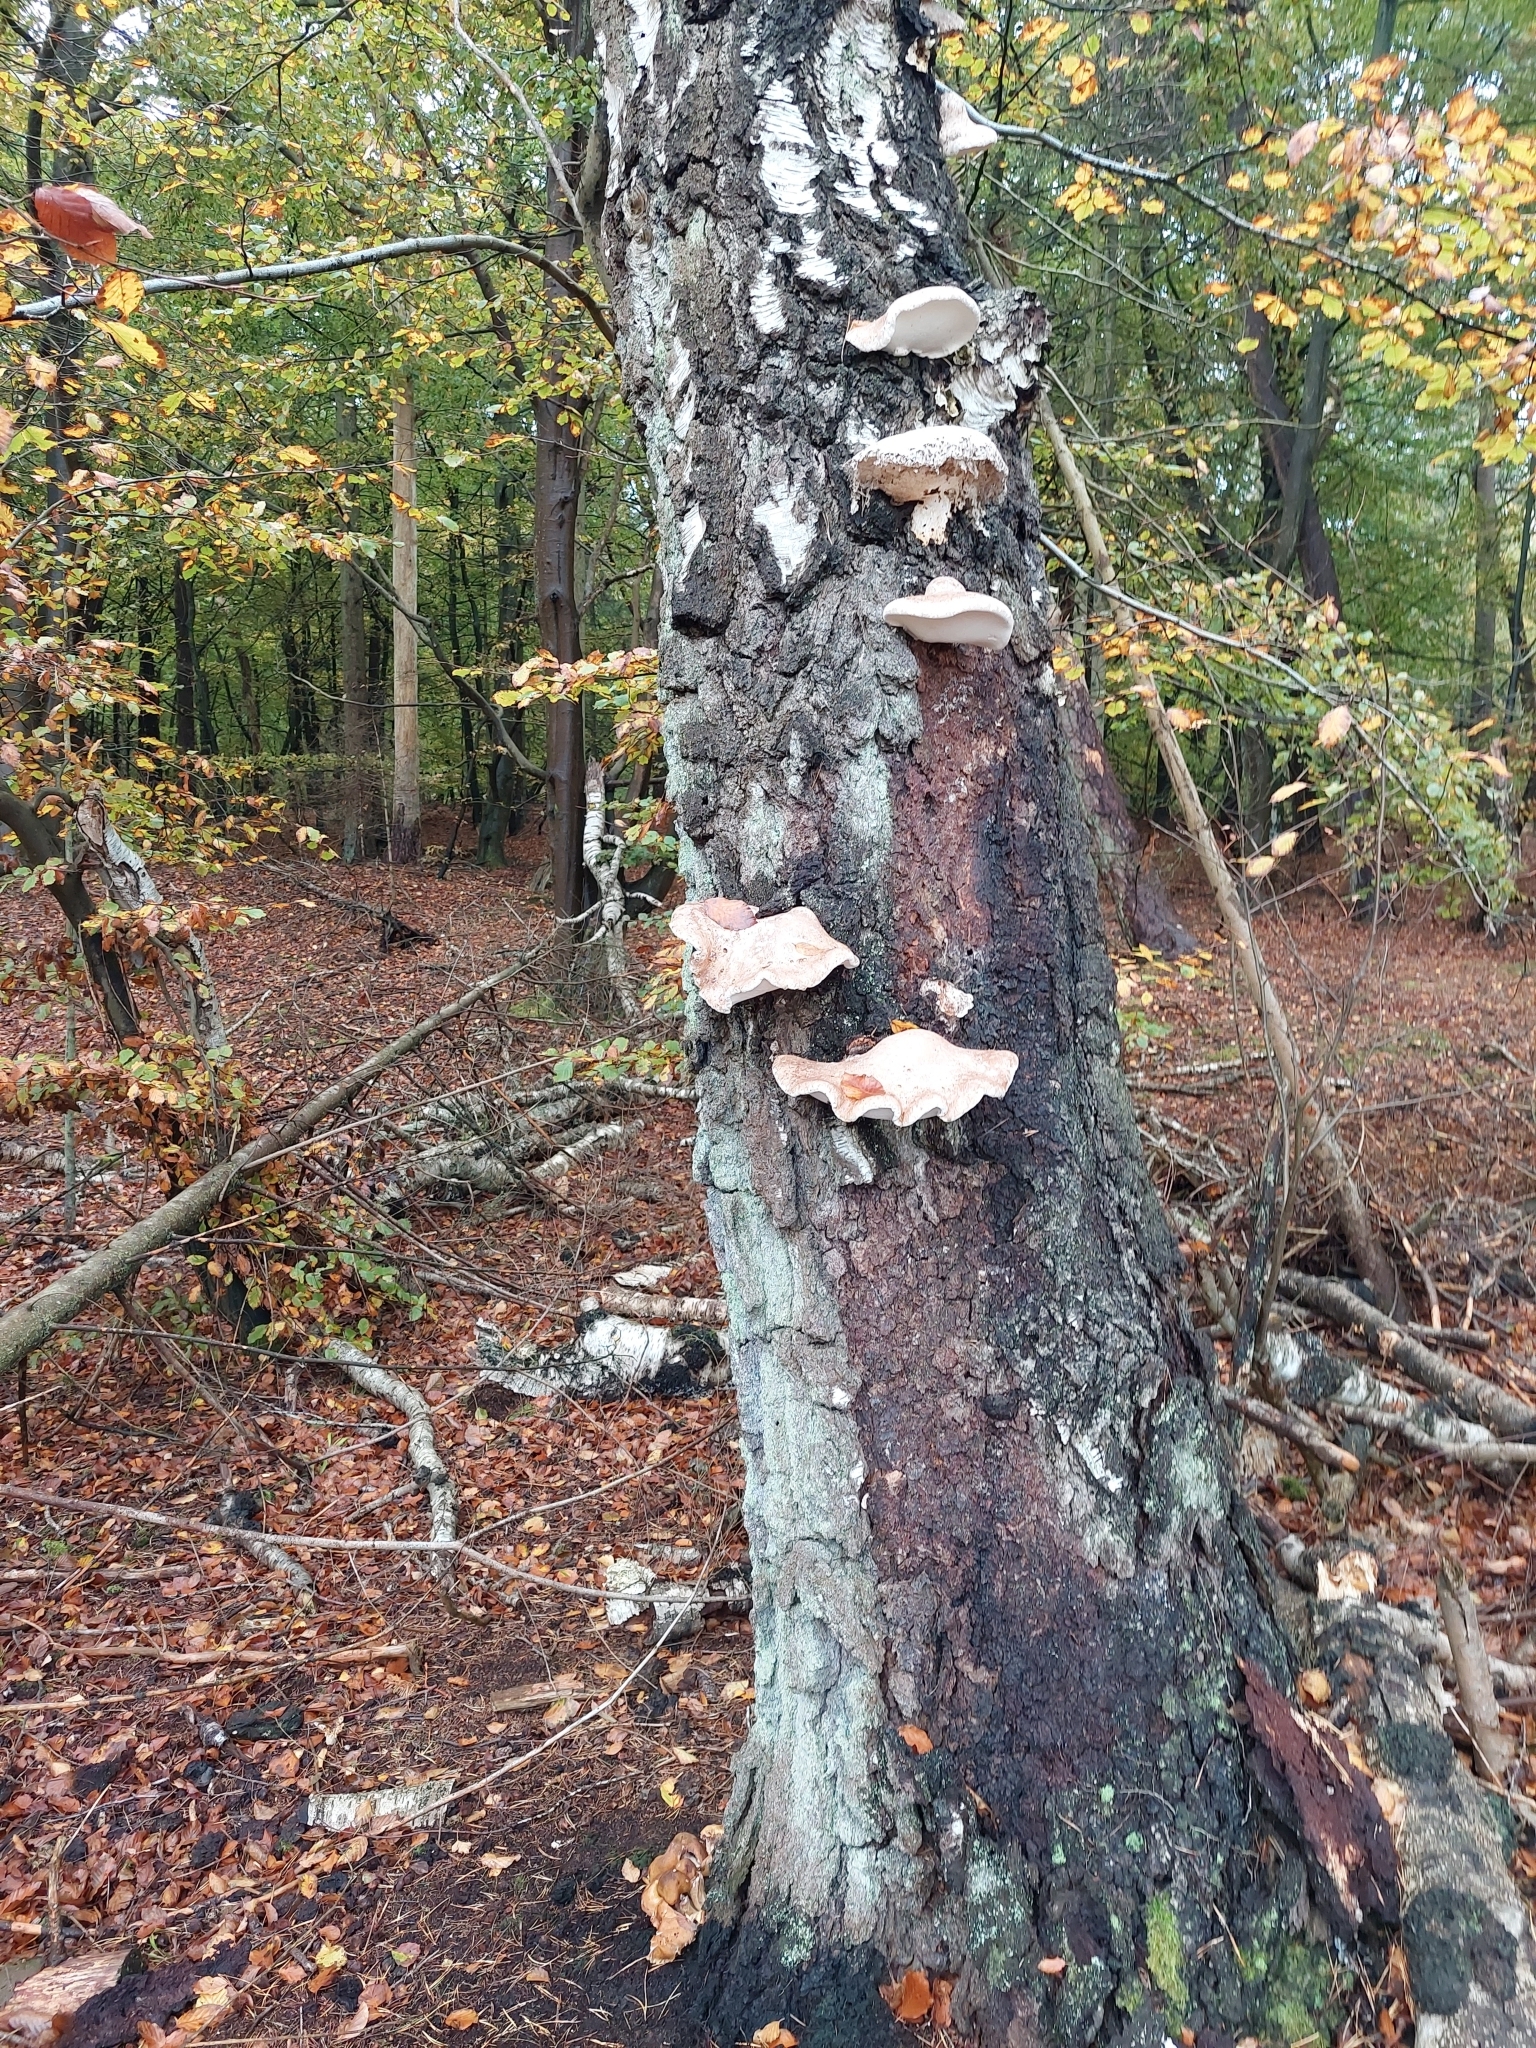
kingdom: Fungi
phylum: Basidiomycota
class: Agaricomycetes
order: Polyporales
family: Fomitopsidaceae
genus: Fomitopsis
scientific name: Fomitopsis betulina
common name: Birch polypore
